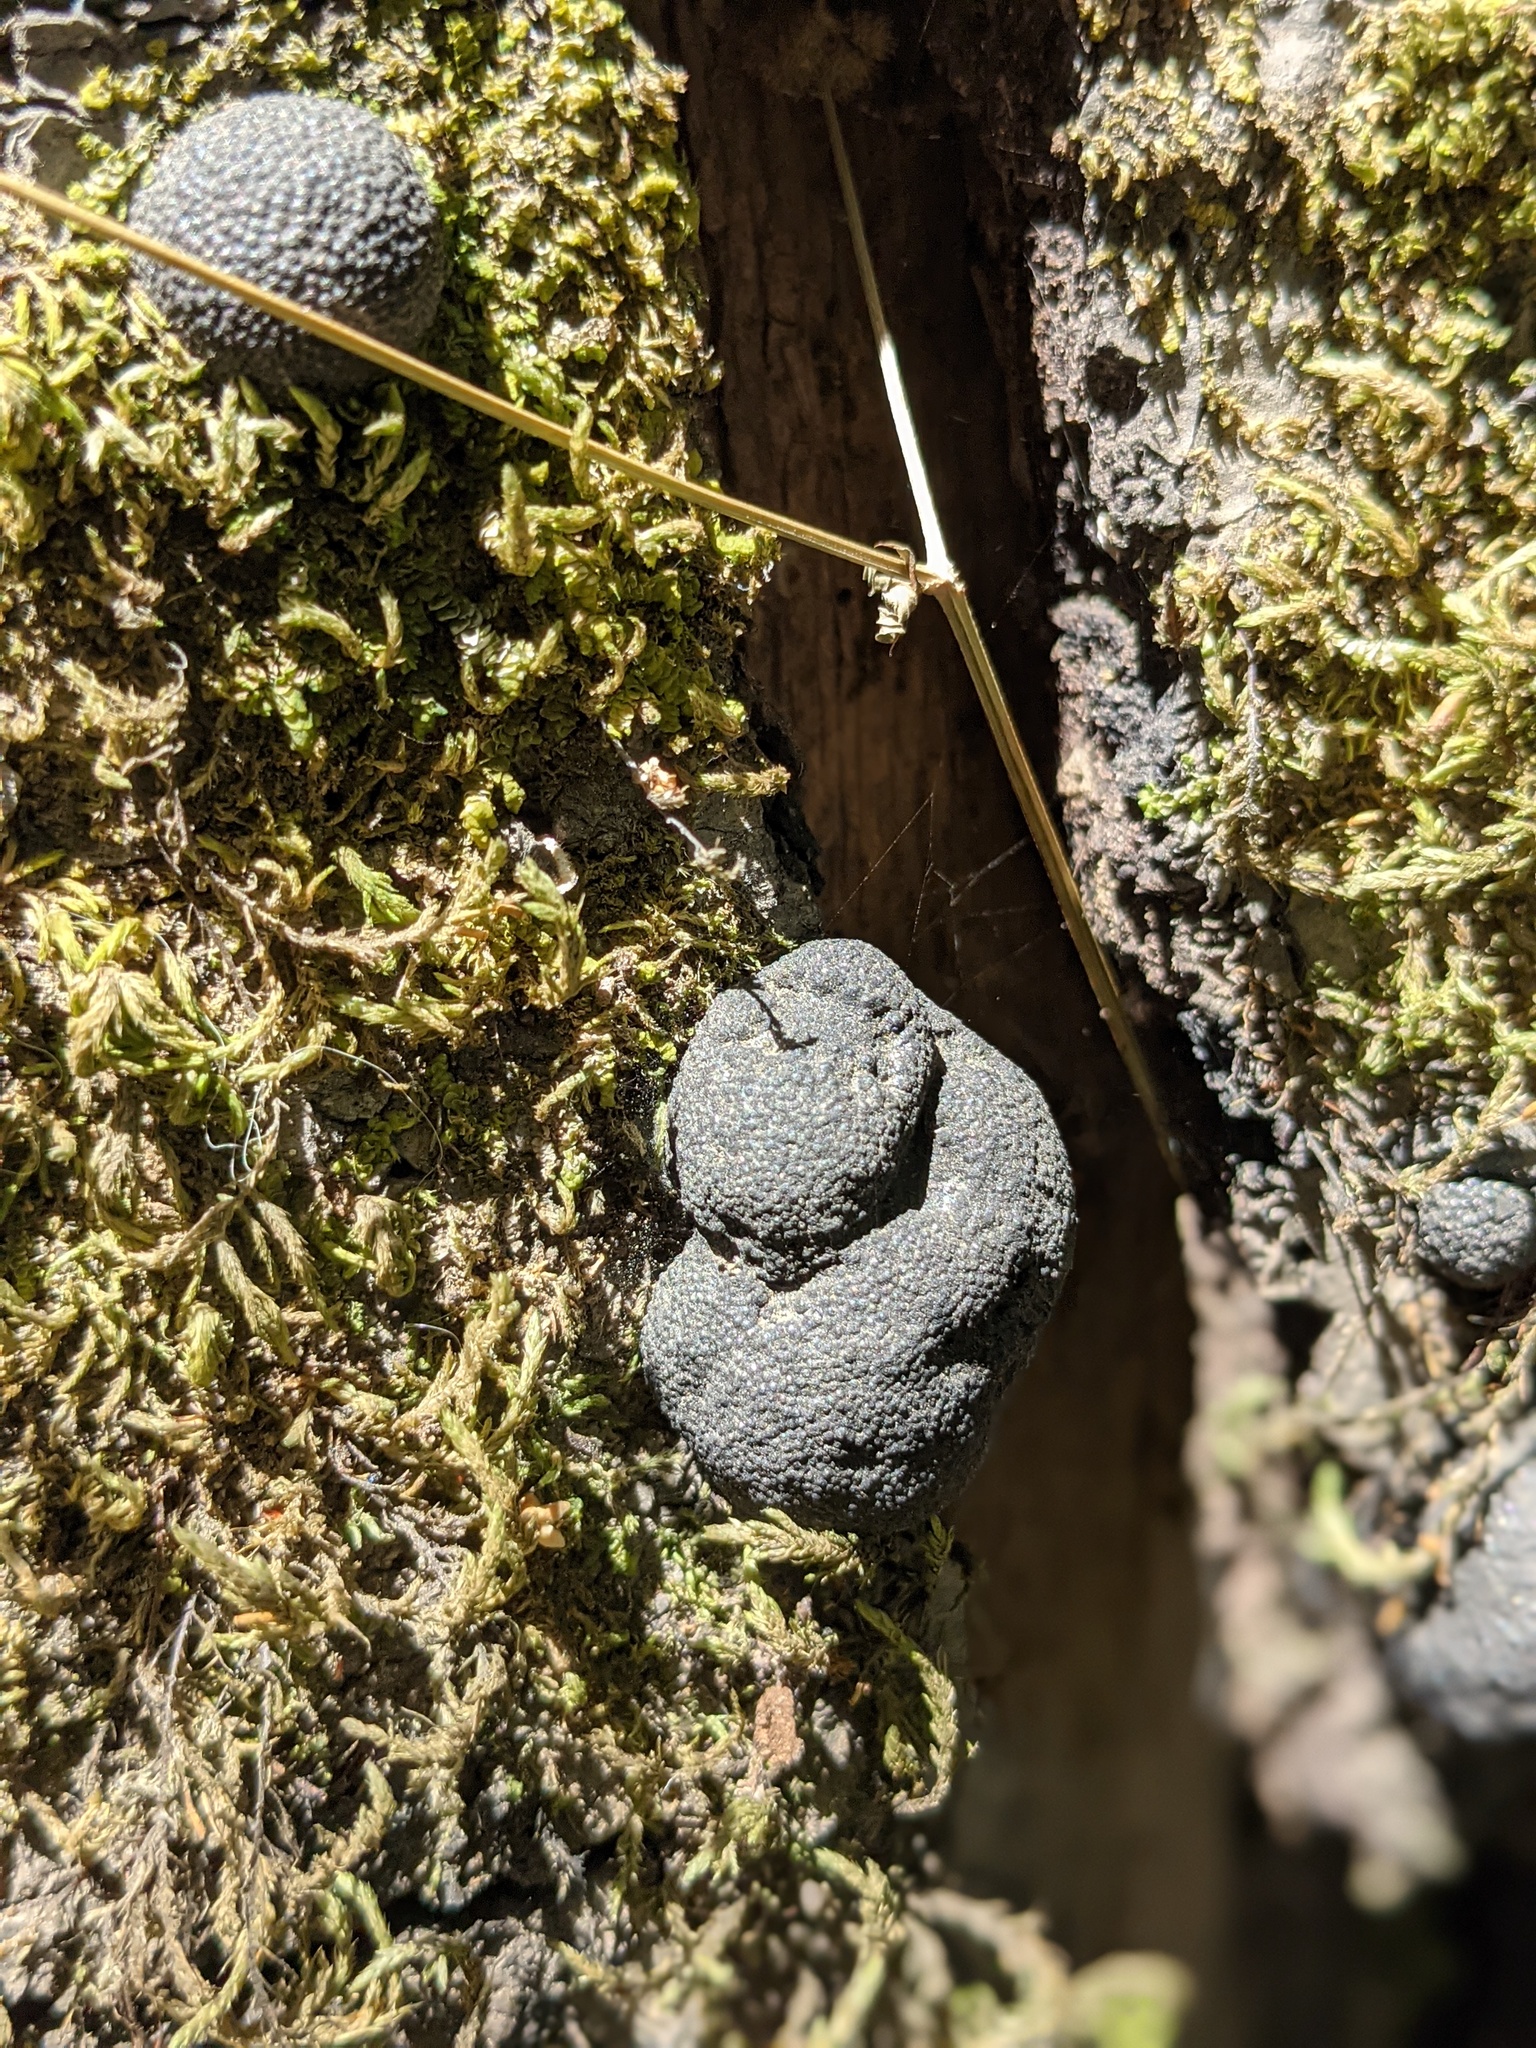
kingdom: Fungi
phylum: Ascomycota
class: Sordariomycetes
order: Xylariales
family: Hypoxylaceae
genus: Annulohypoxylon
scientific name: Annulohypoxylon thouarsianum
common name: Cramp balls
